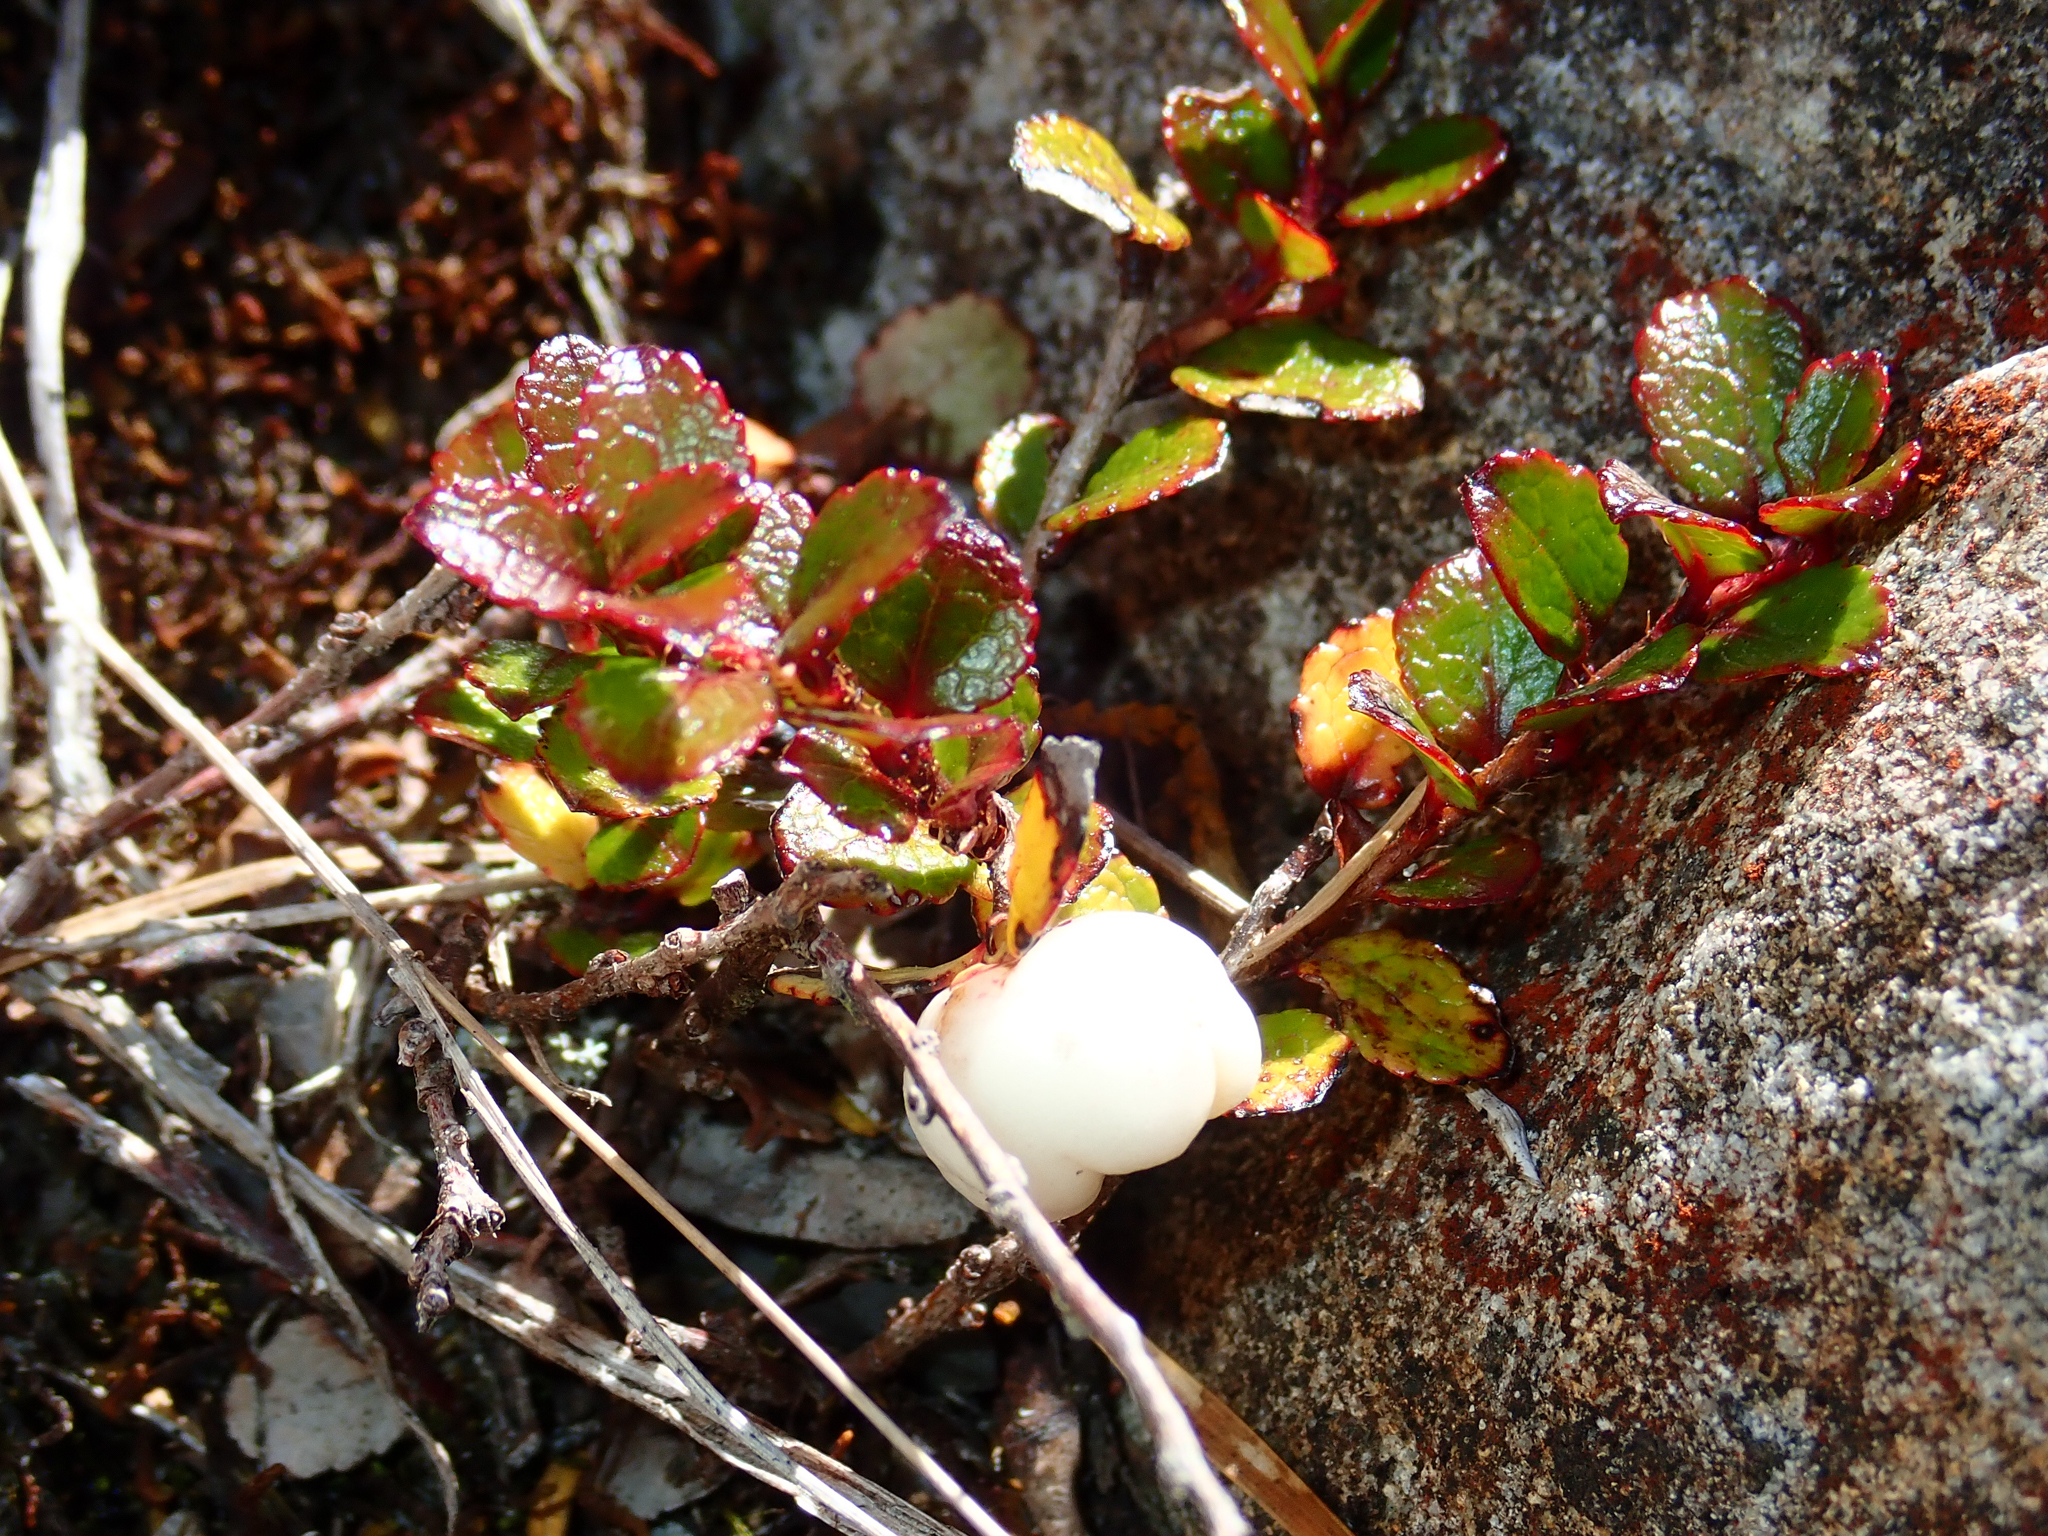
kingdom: Plantae
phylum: Tracheophyta
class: Magnoliopsida
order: Ericales
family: Ericaceae
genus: Gaultheria
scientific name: Gaultheria depressa
